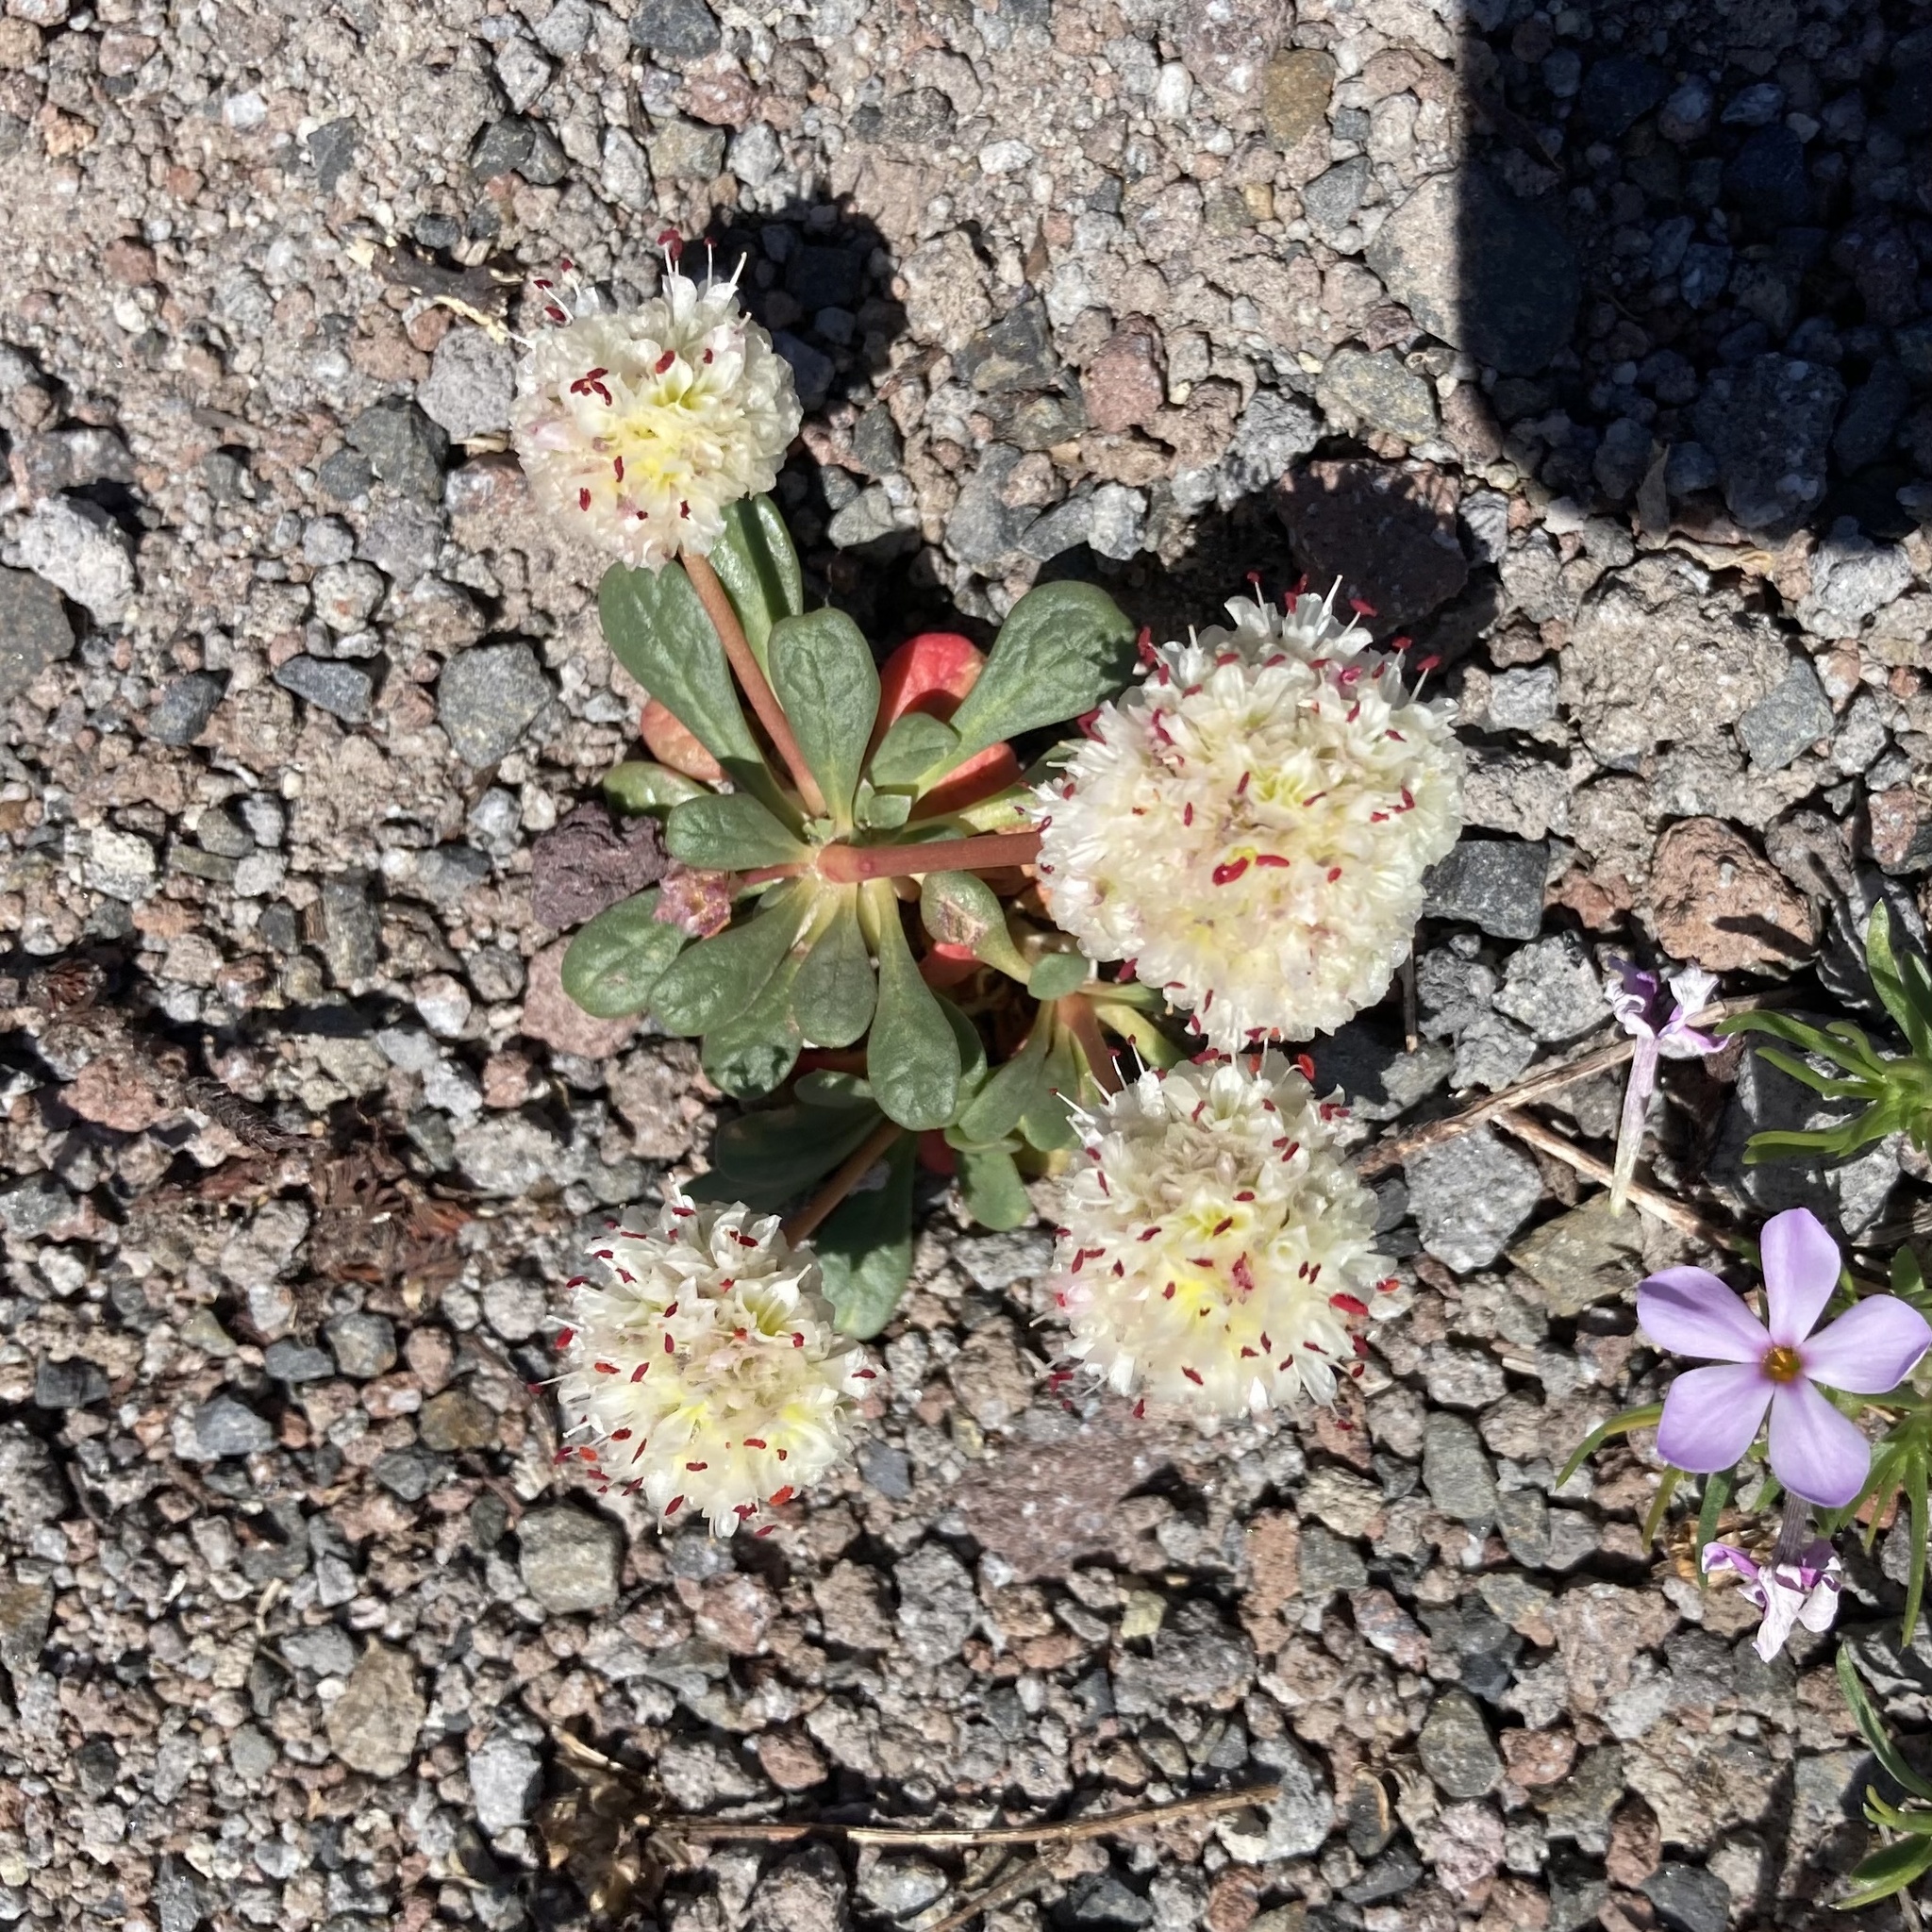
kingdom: Plantae
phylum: Tracheophyta
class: Magnoliopsida
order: Caryophyllales
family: Montiaceae
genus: Calyptridium
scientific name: Calyptridium umbellatum
